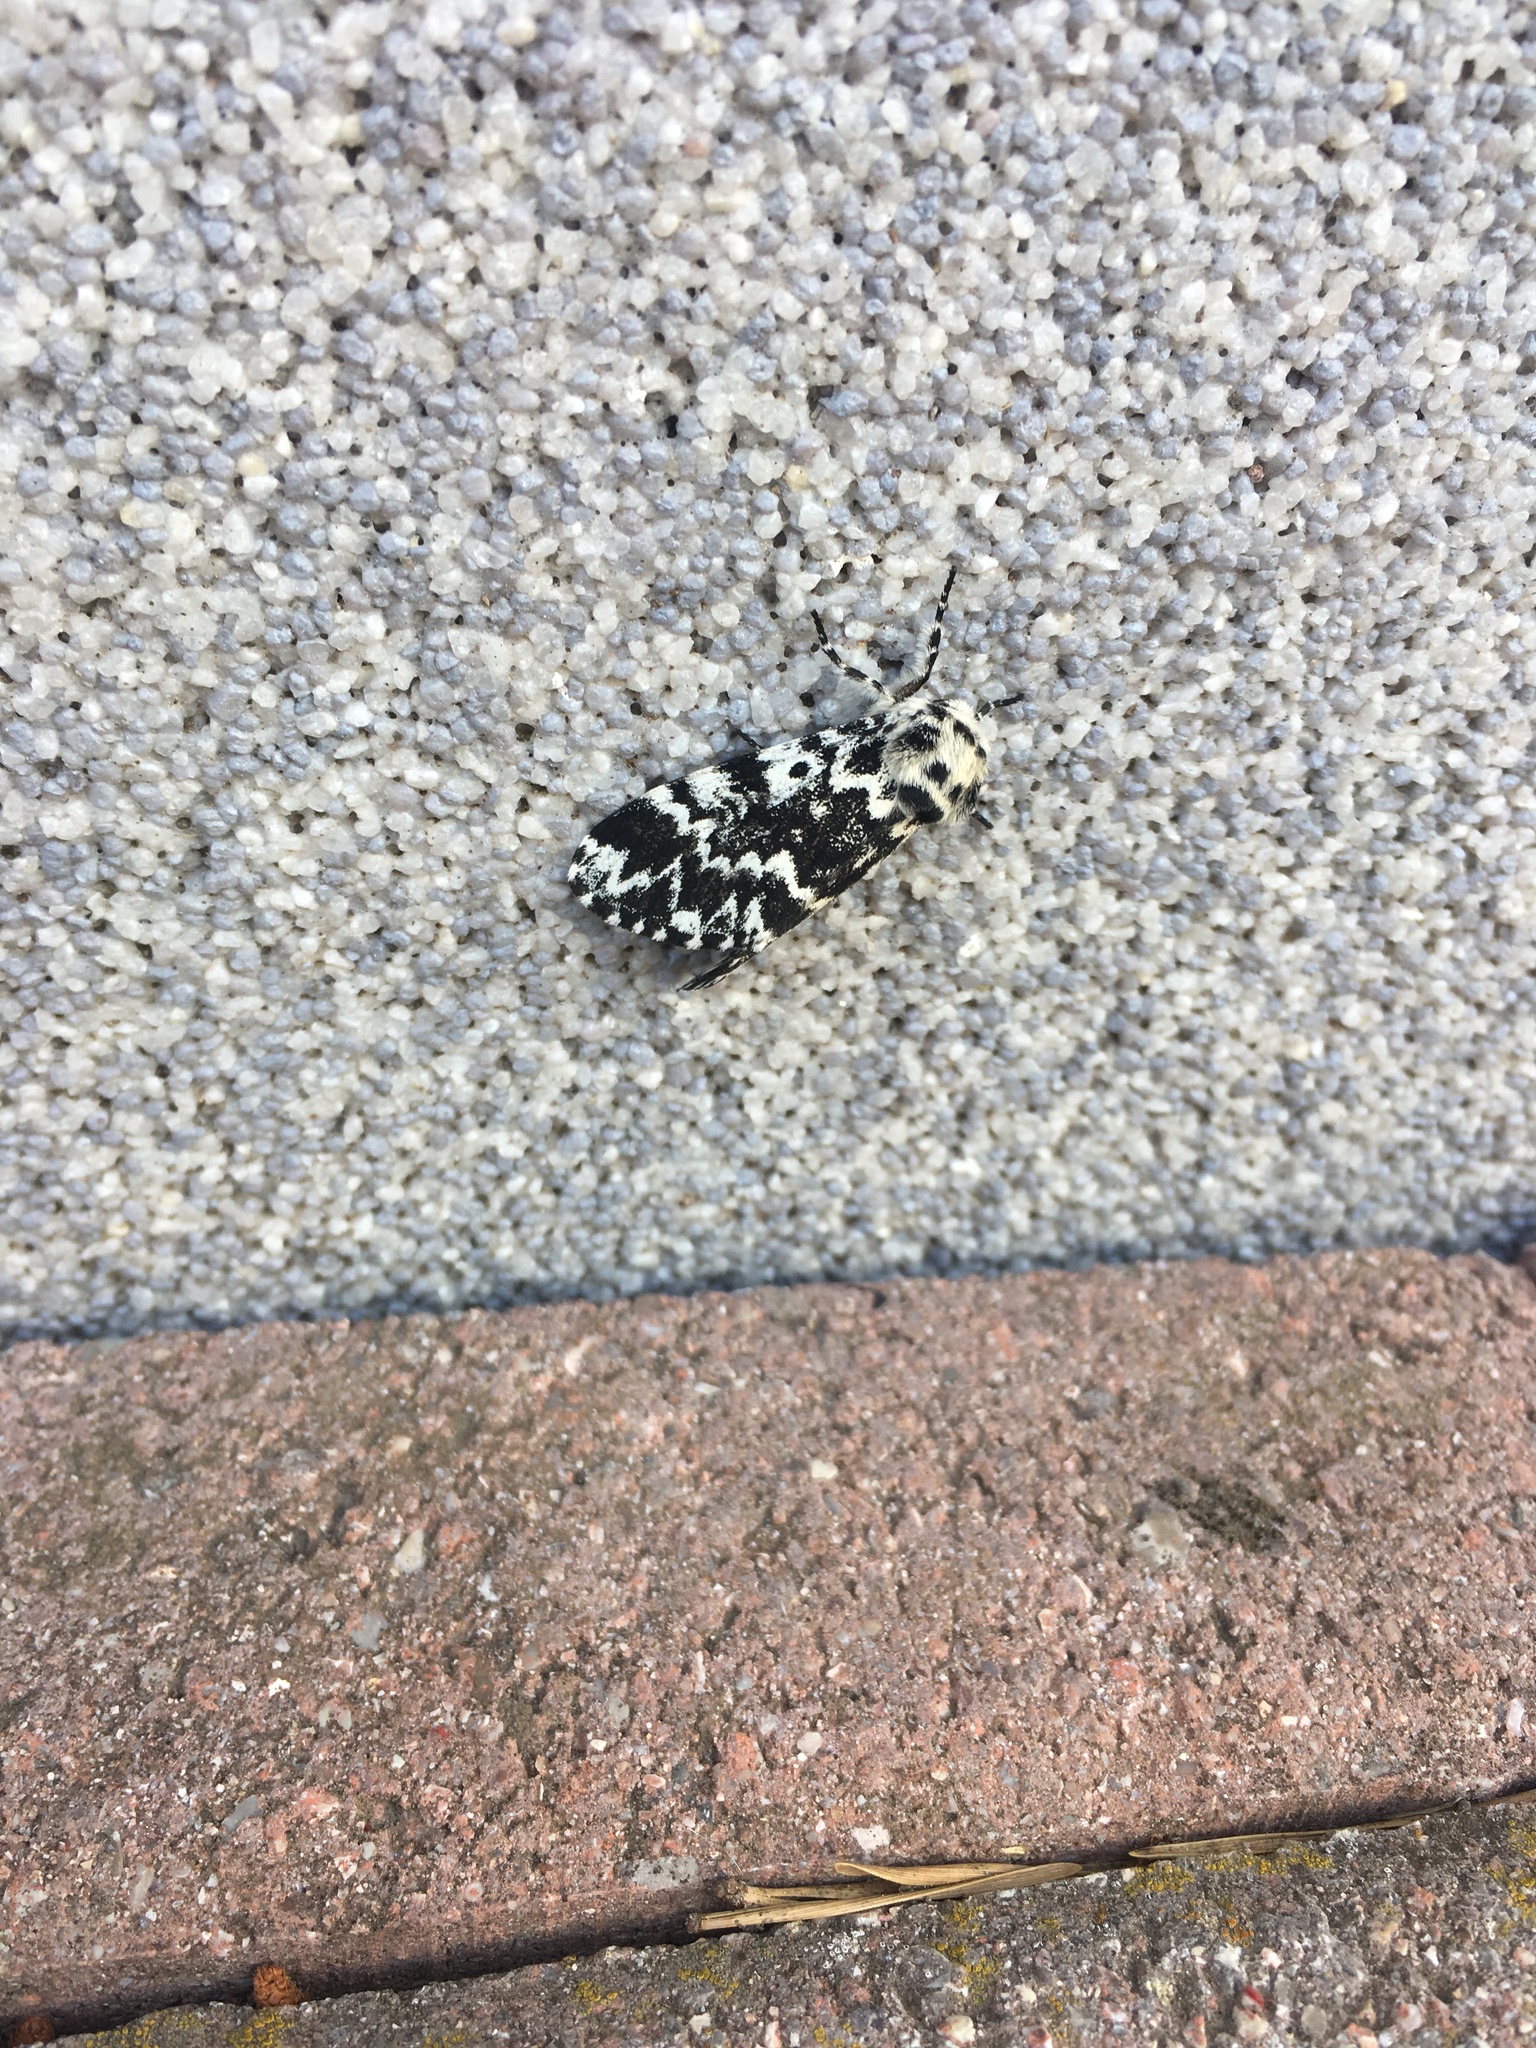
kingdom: Animalia
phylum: Arthropoda
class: Insecta
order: Lepidoptera
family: Noctuidae
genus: Panthea
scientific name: Panthea coenobita
